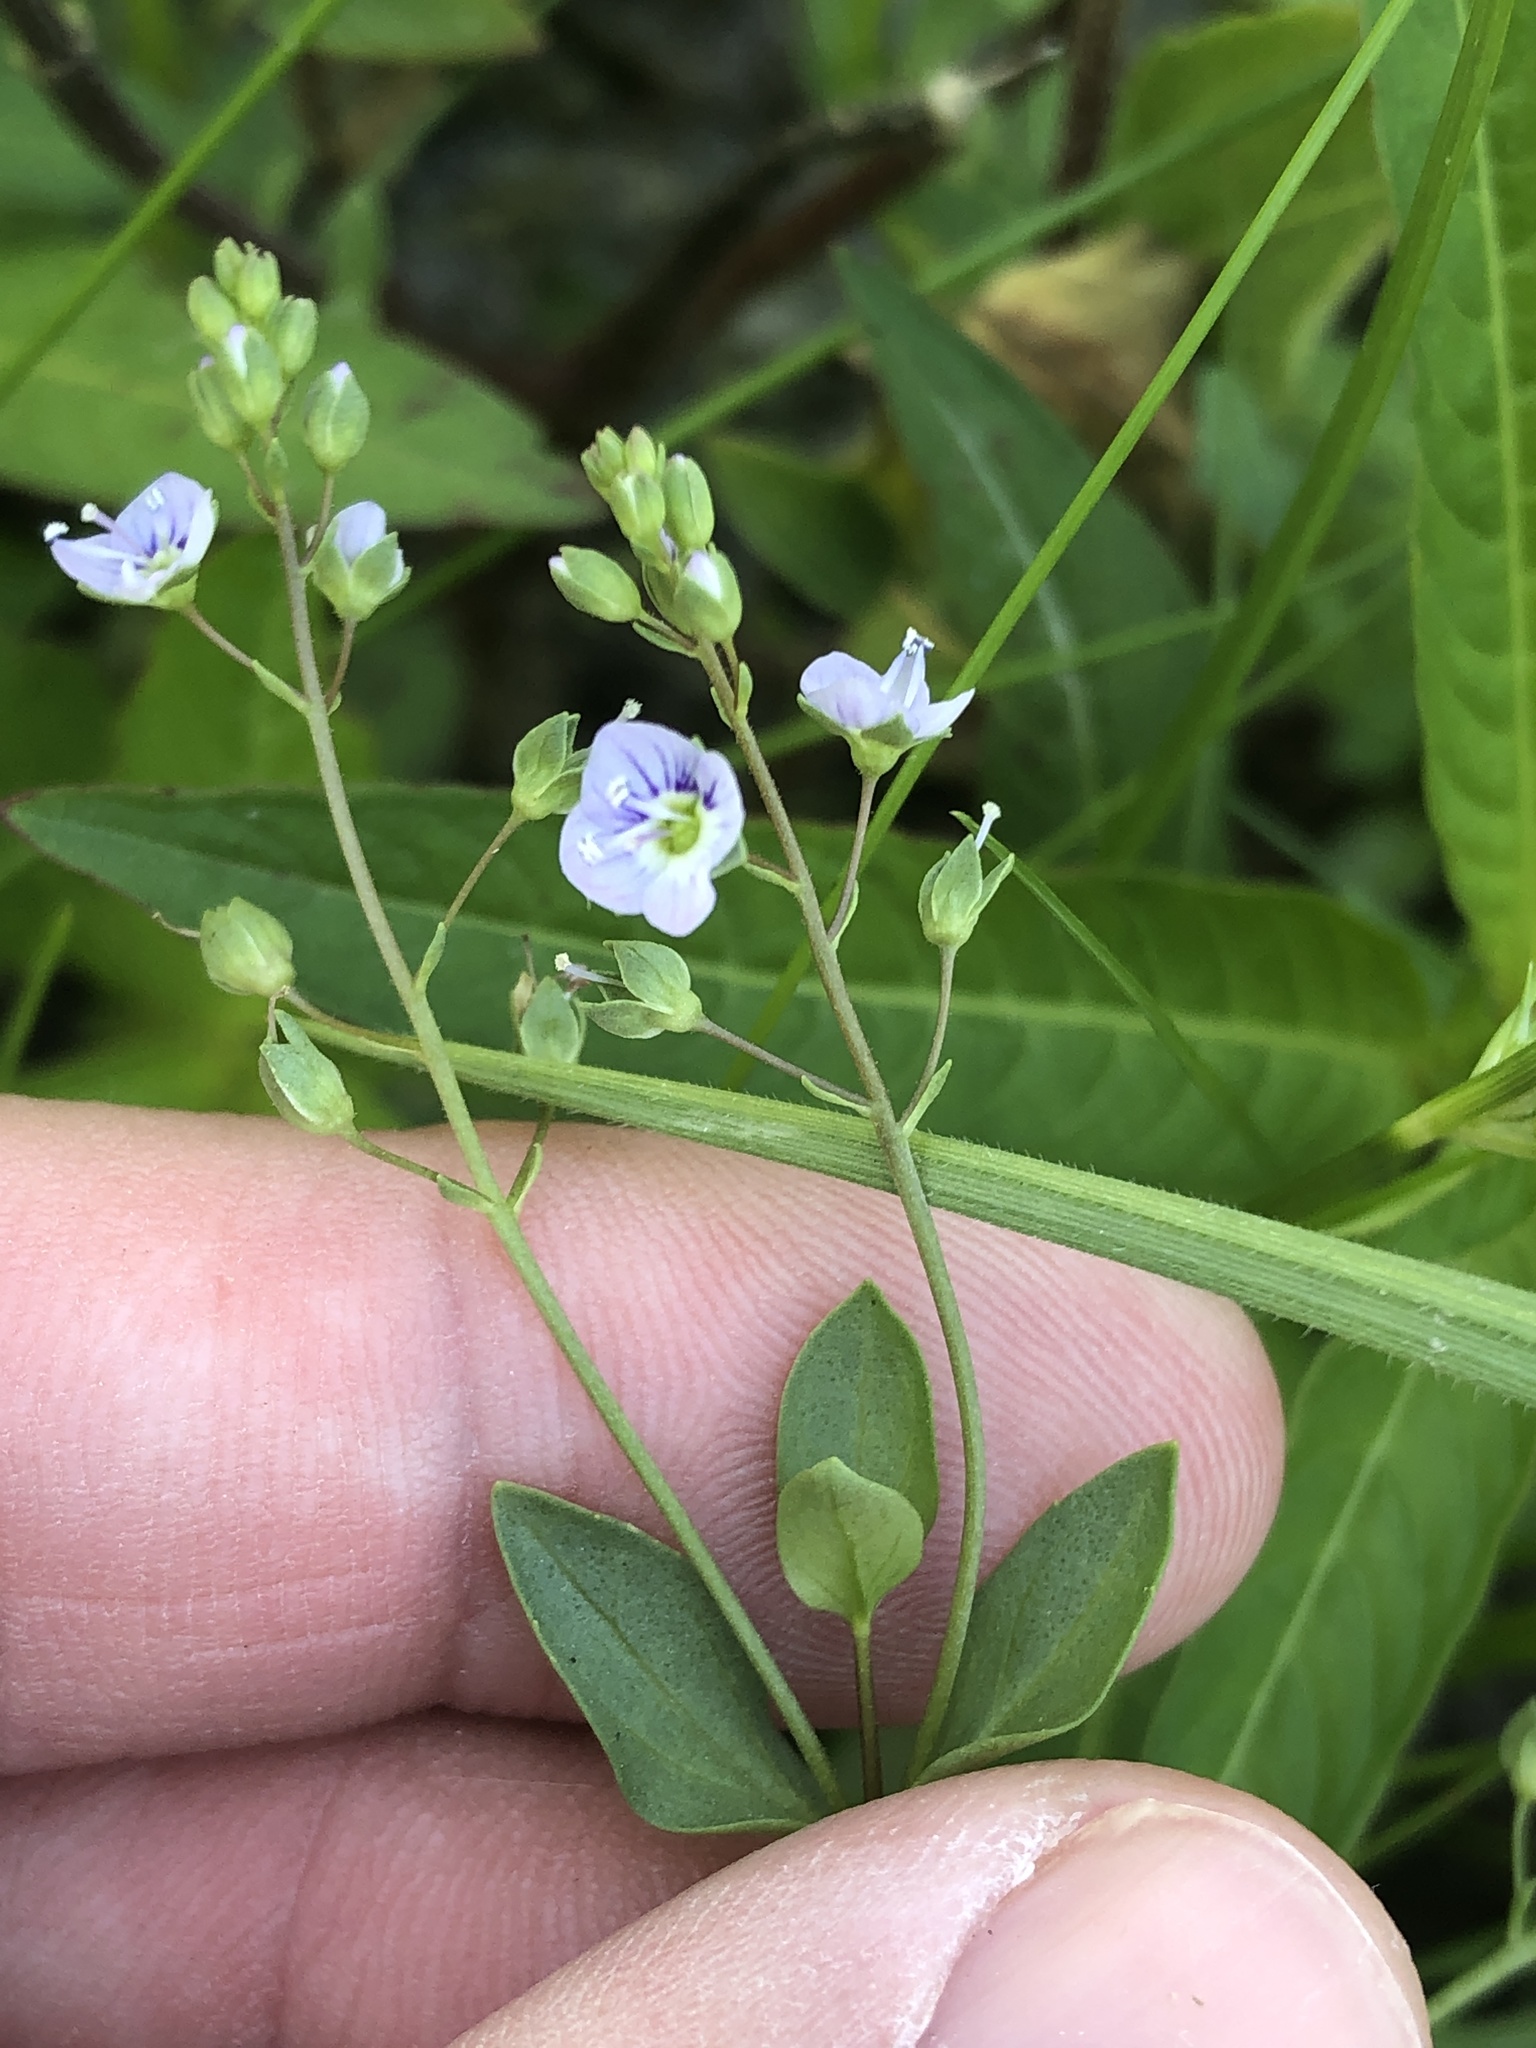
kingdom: Plantae
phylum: Tracheophyta
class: Magnoliopsida
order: Lamiales
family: Plantaginaceae
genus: Veronica
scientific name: Veronica anagallis-aquatica
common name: Water speedwell
